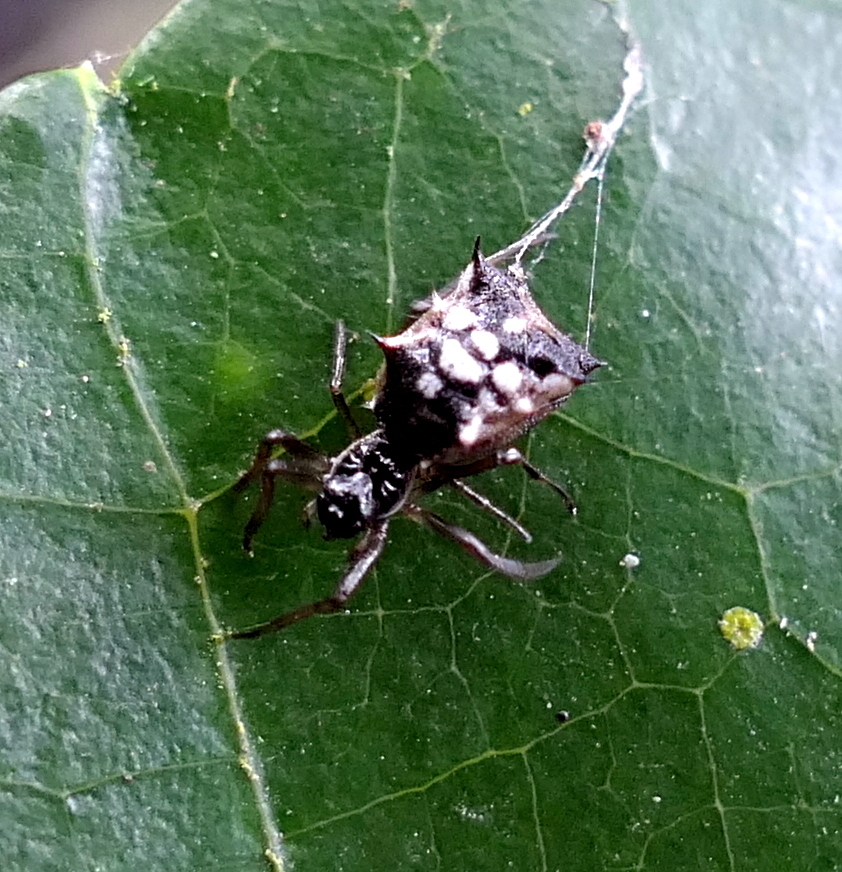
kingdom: Animalia
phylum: Arthropoda
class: Arachnida
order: Araneae
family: Araneidae
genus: Micrathena
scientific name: Micrathena picta
